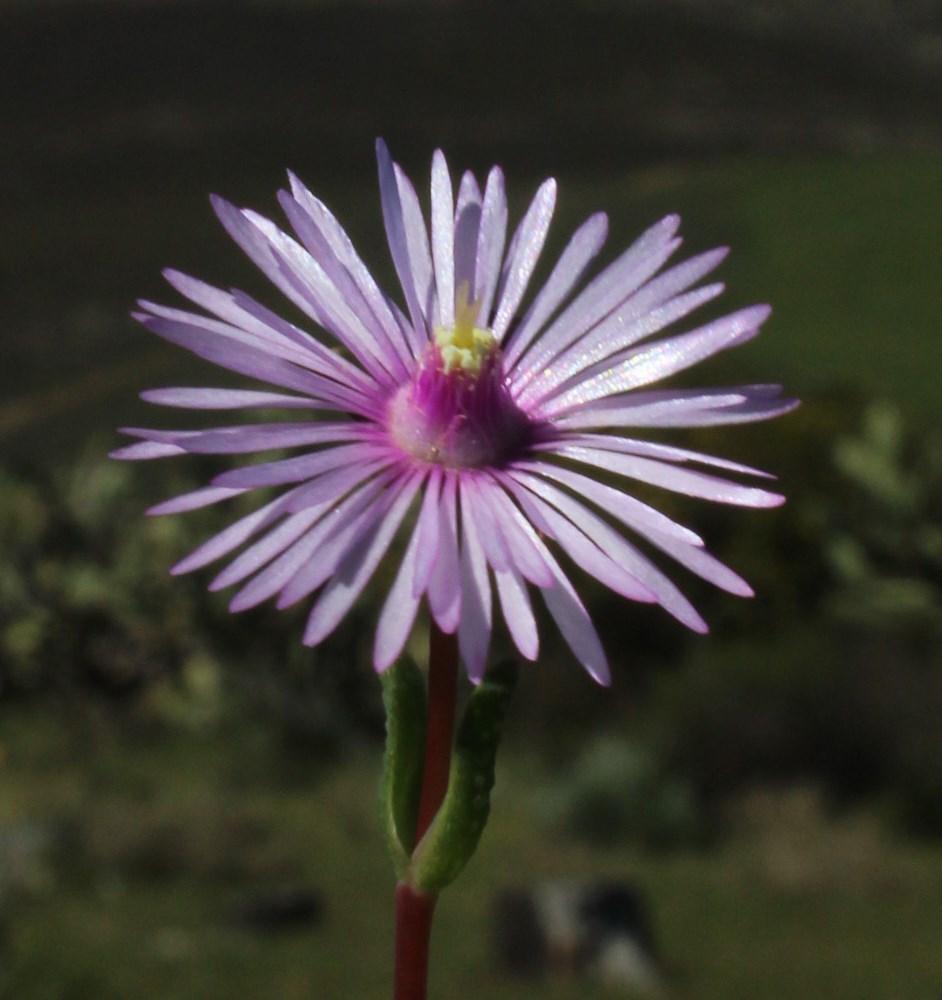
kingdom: Plantae
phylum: Tracheophyta
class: Magnoliopsida
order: Caryophyllales
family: Aizoaceae
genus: Lampranthus
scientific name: Lampranthus elegans
